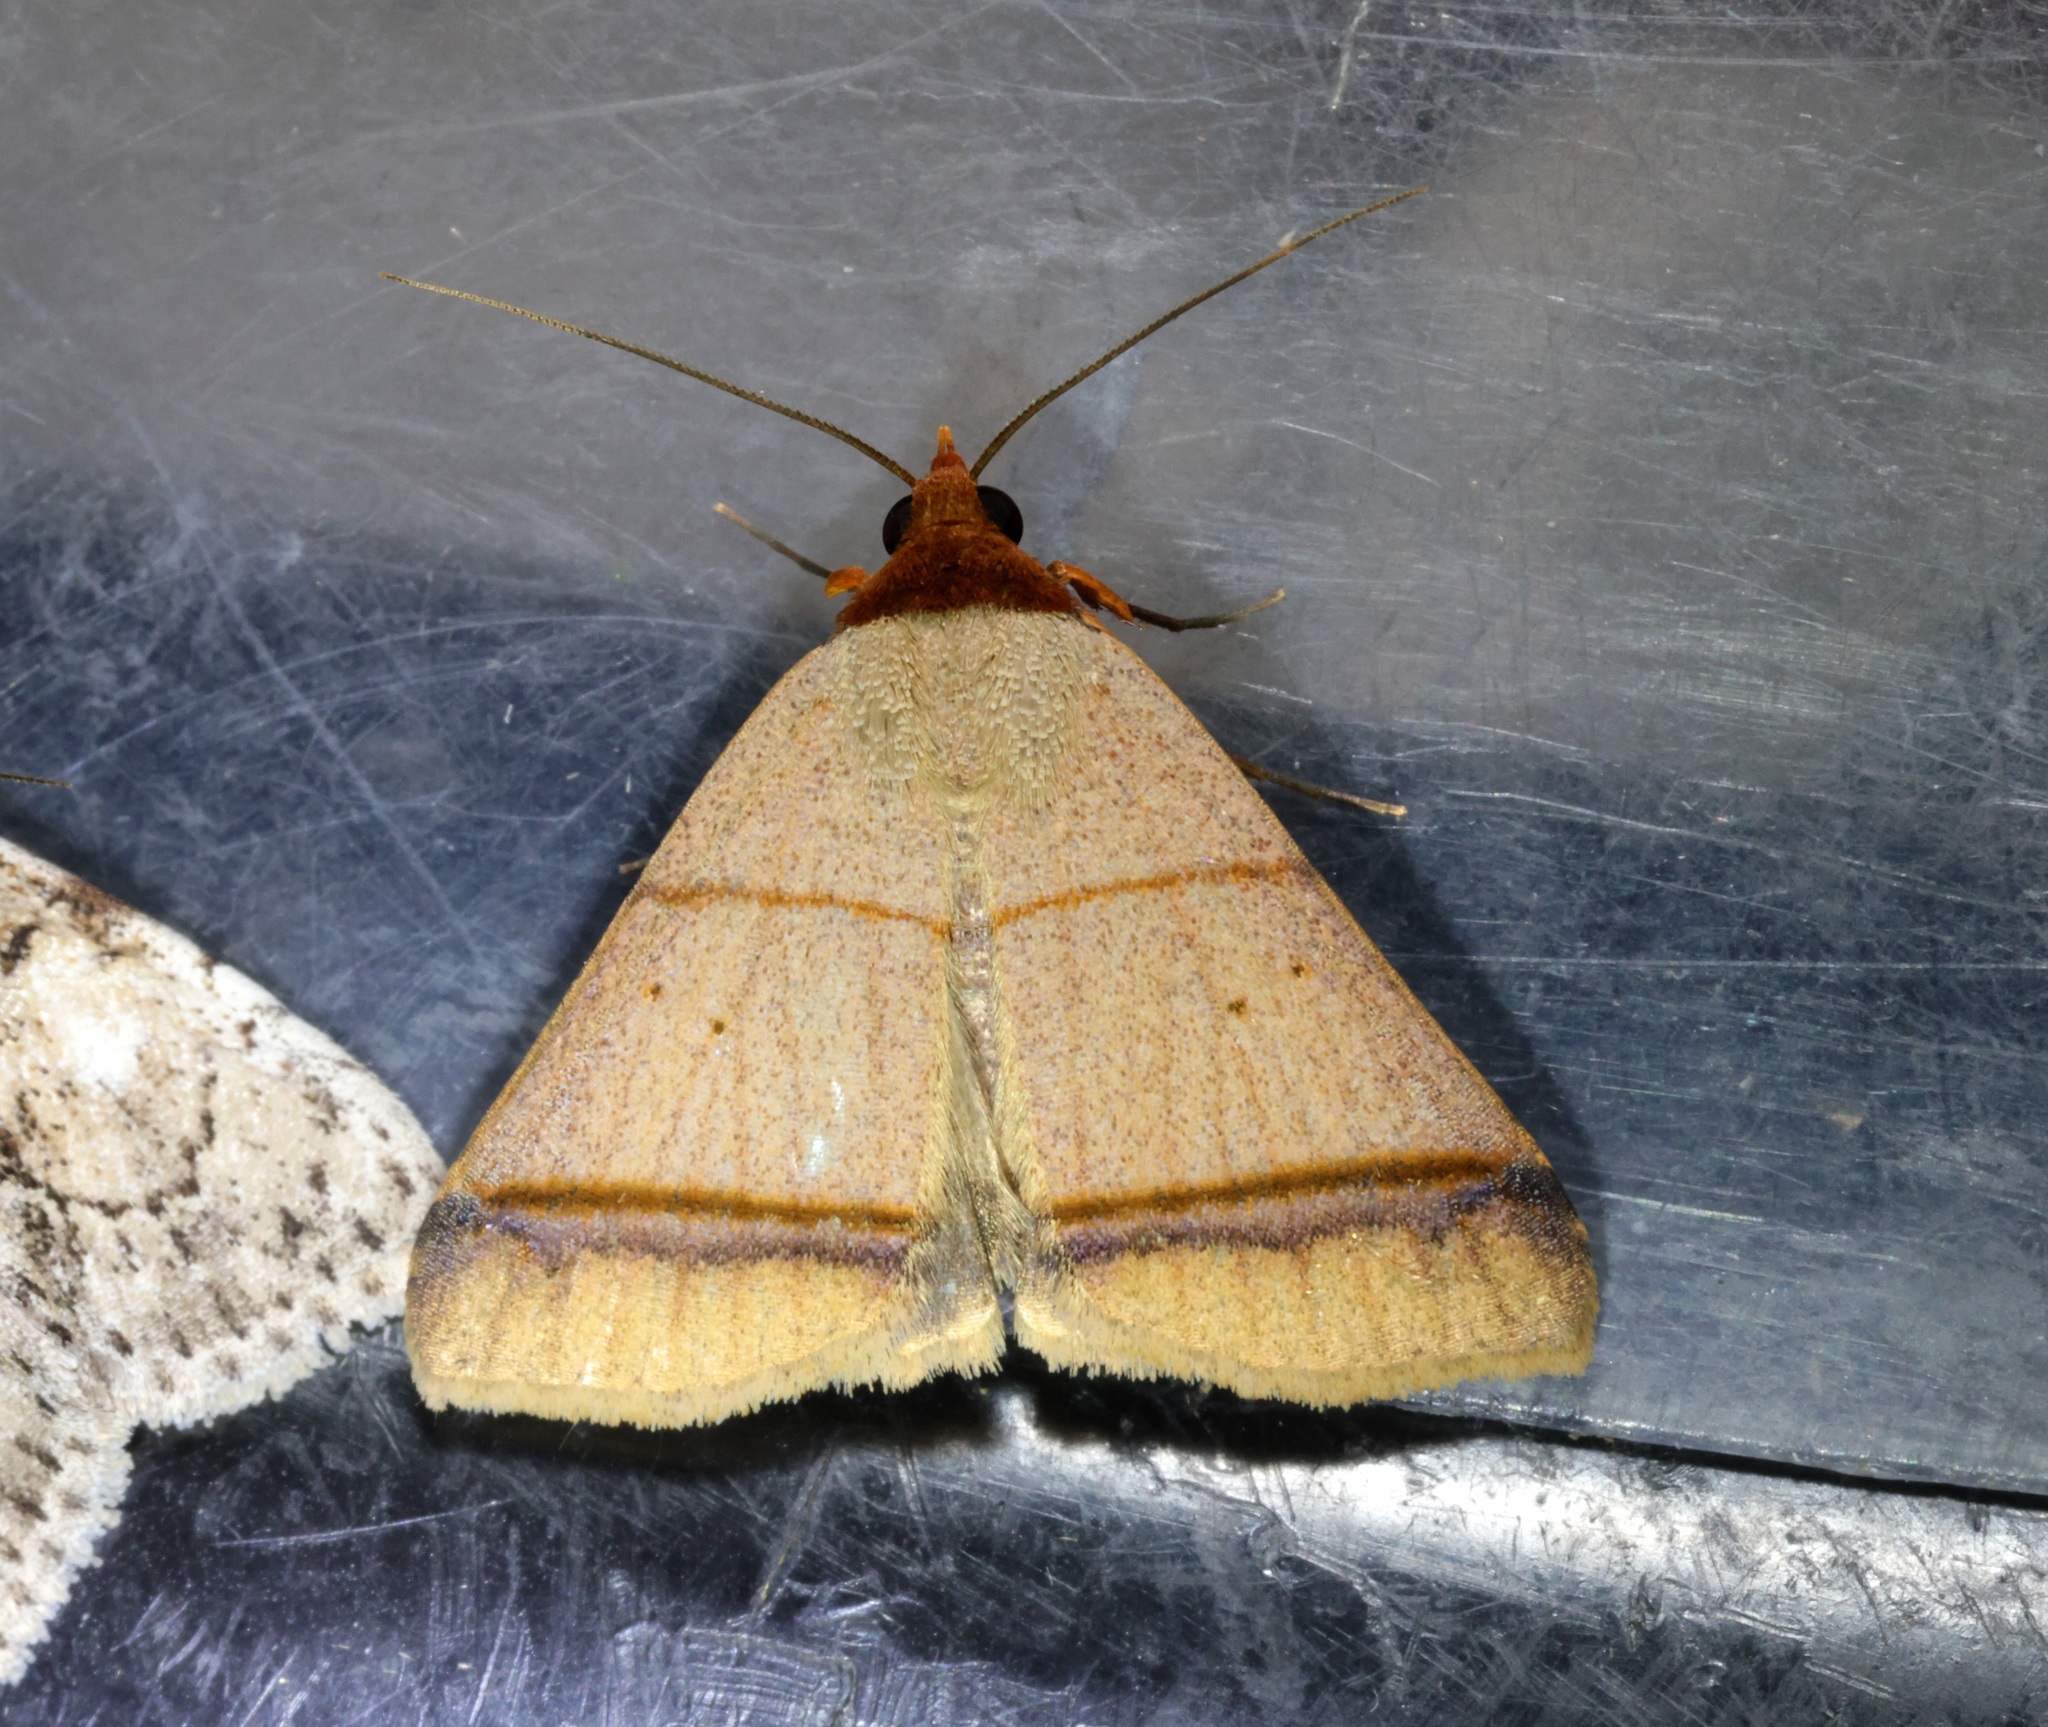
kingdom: Animalia
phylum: Arthropoda
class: Insecta
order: Lepidoptera
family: Erebidae
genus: Plecoptera
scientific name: Plecoptera recta
